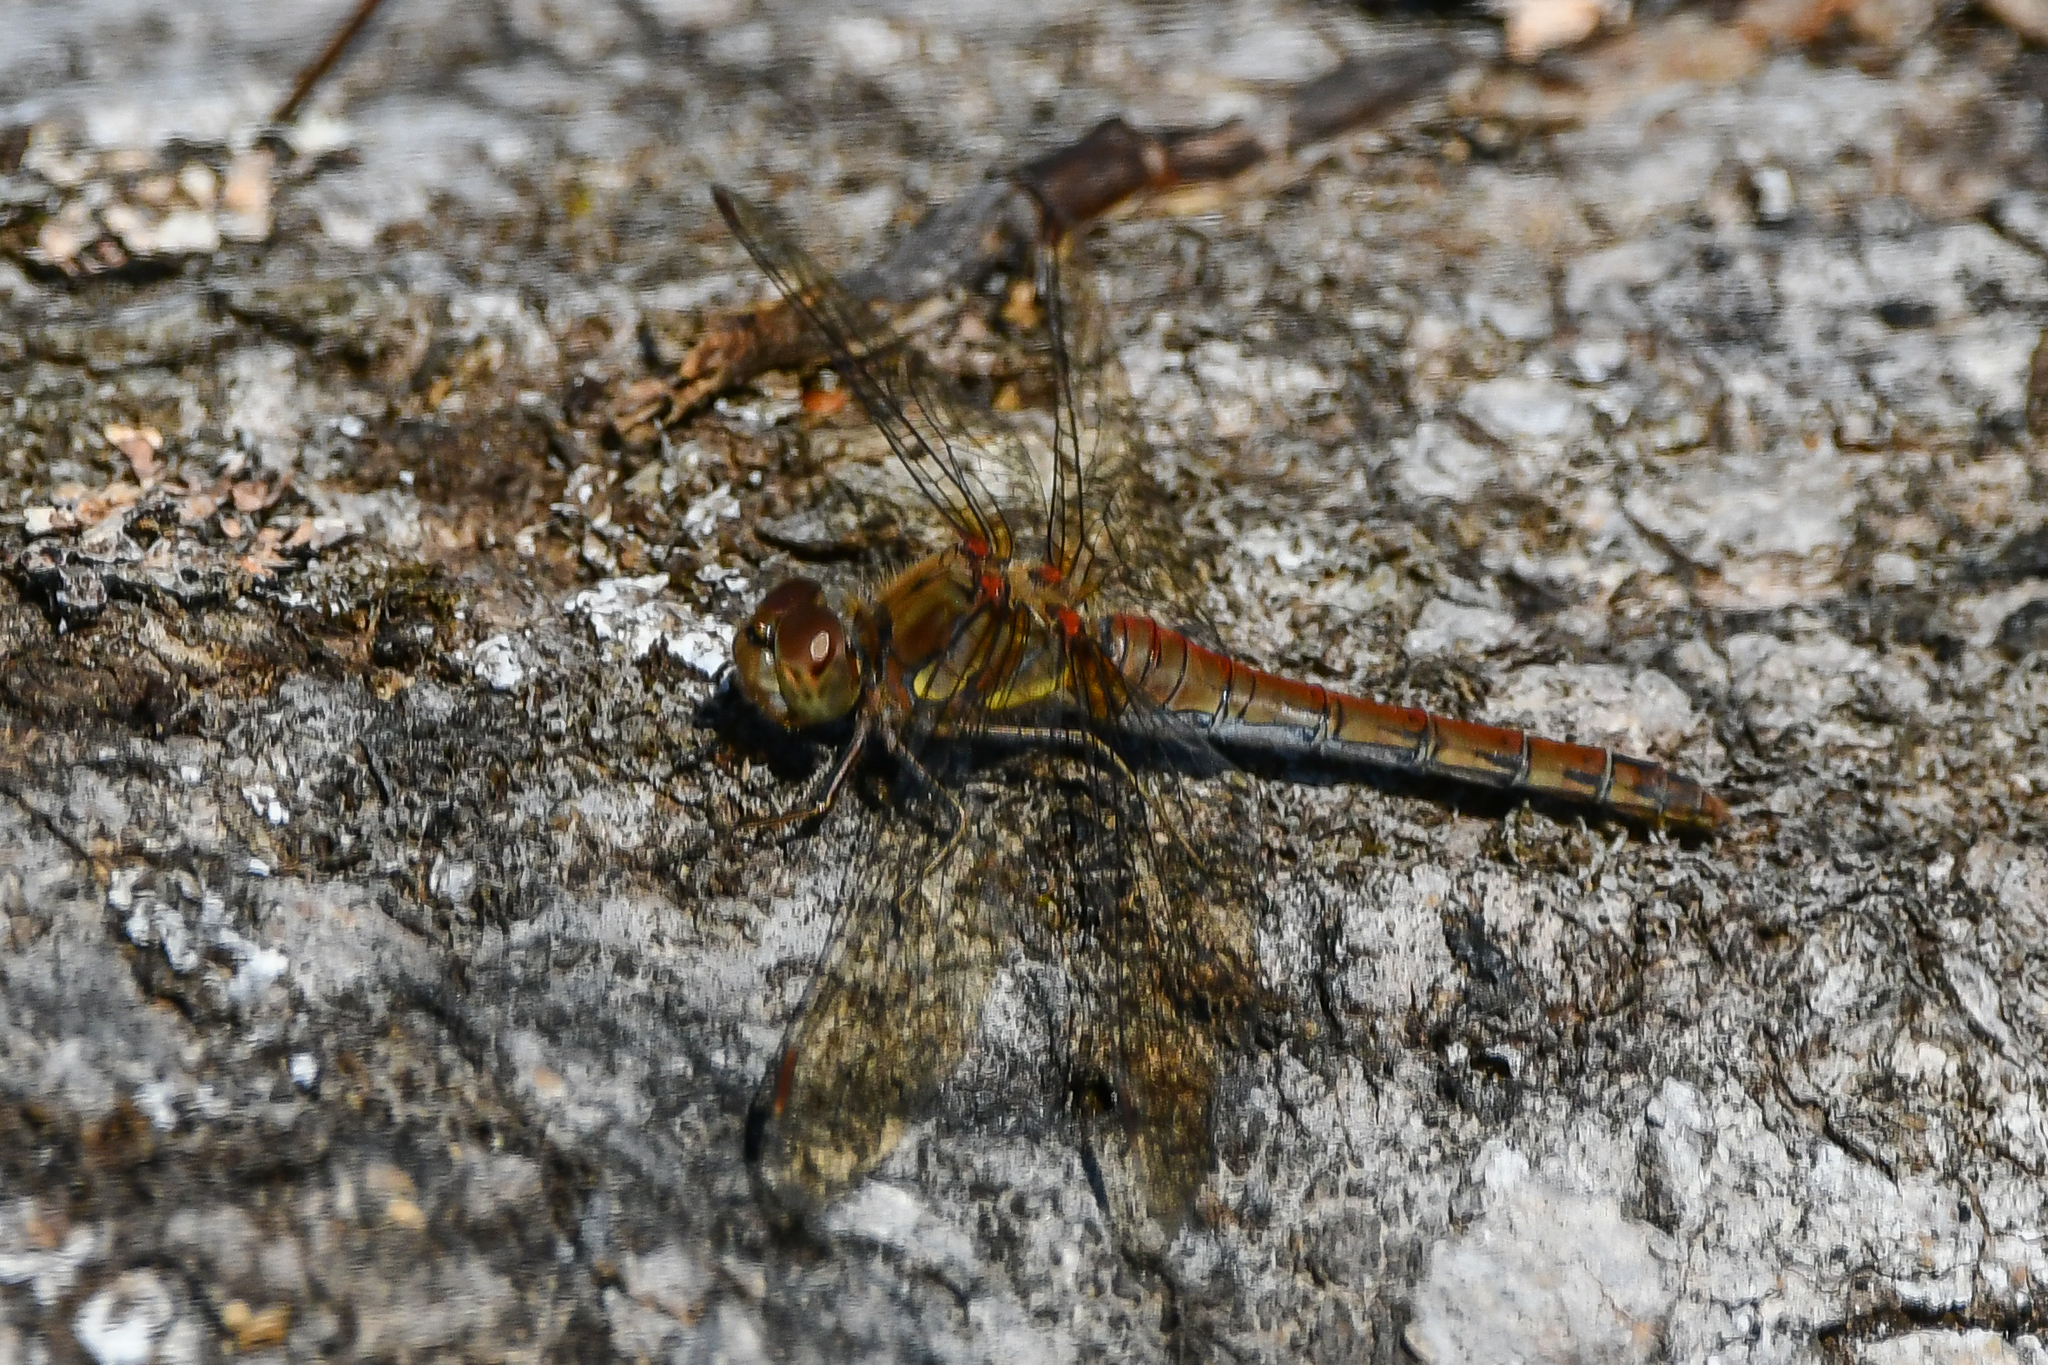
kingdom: Animalia
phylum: Arthropoda
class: Insecta
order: Odonata
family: Libellulidae
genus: Sympetrum
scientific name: Sympetrum striolatum
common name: Common darter
